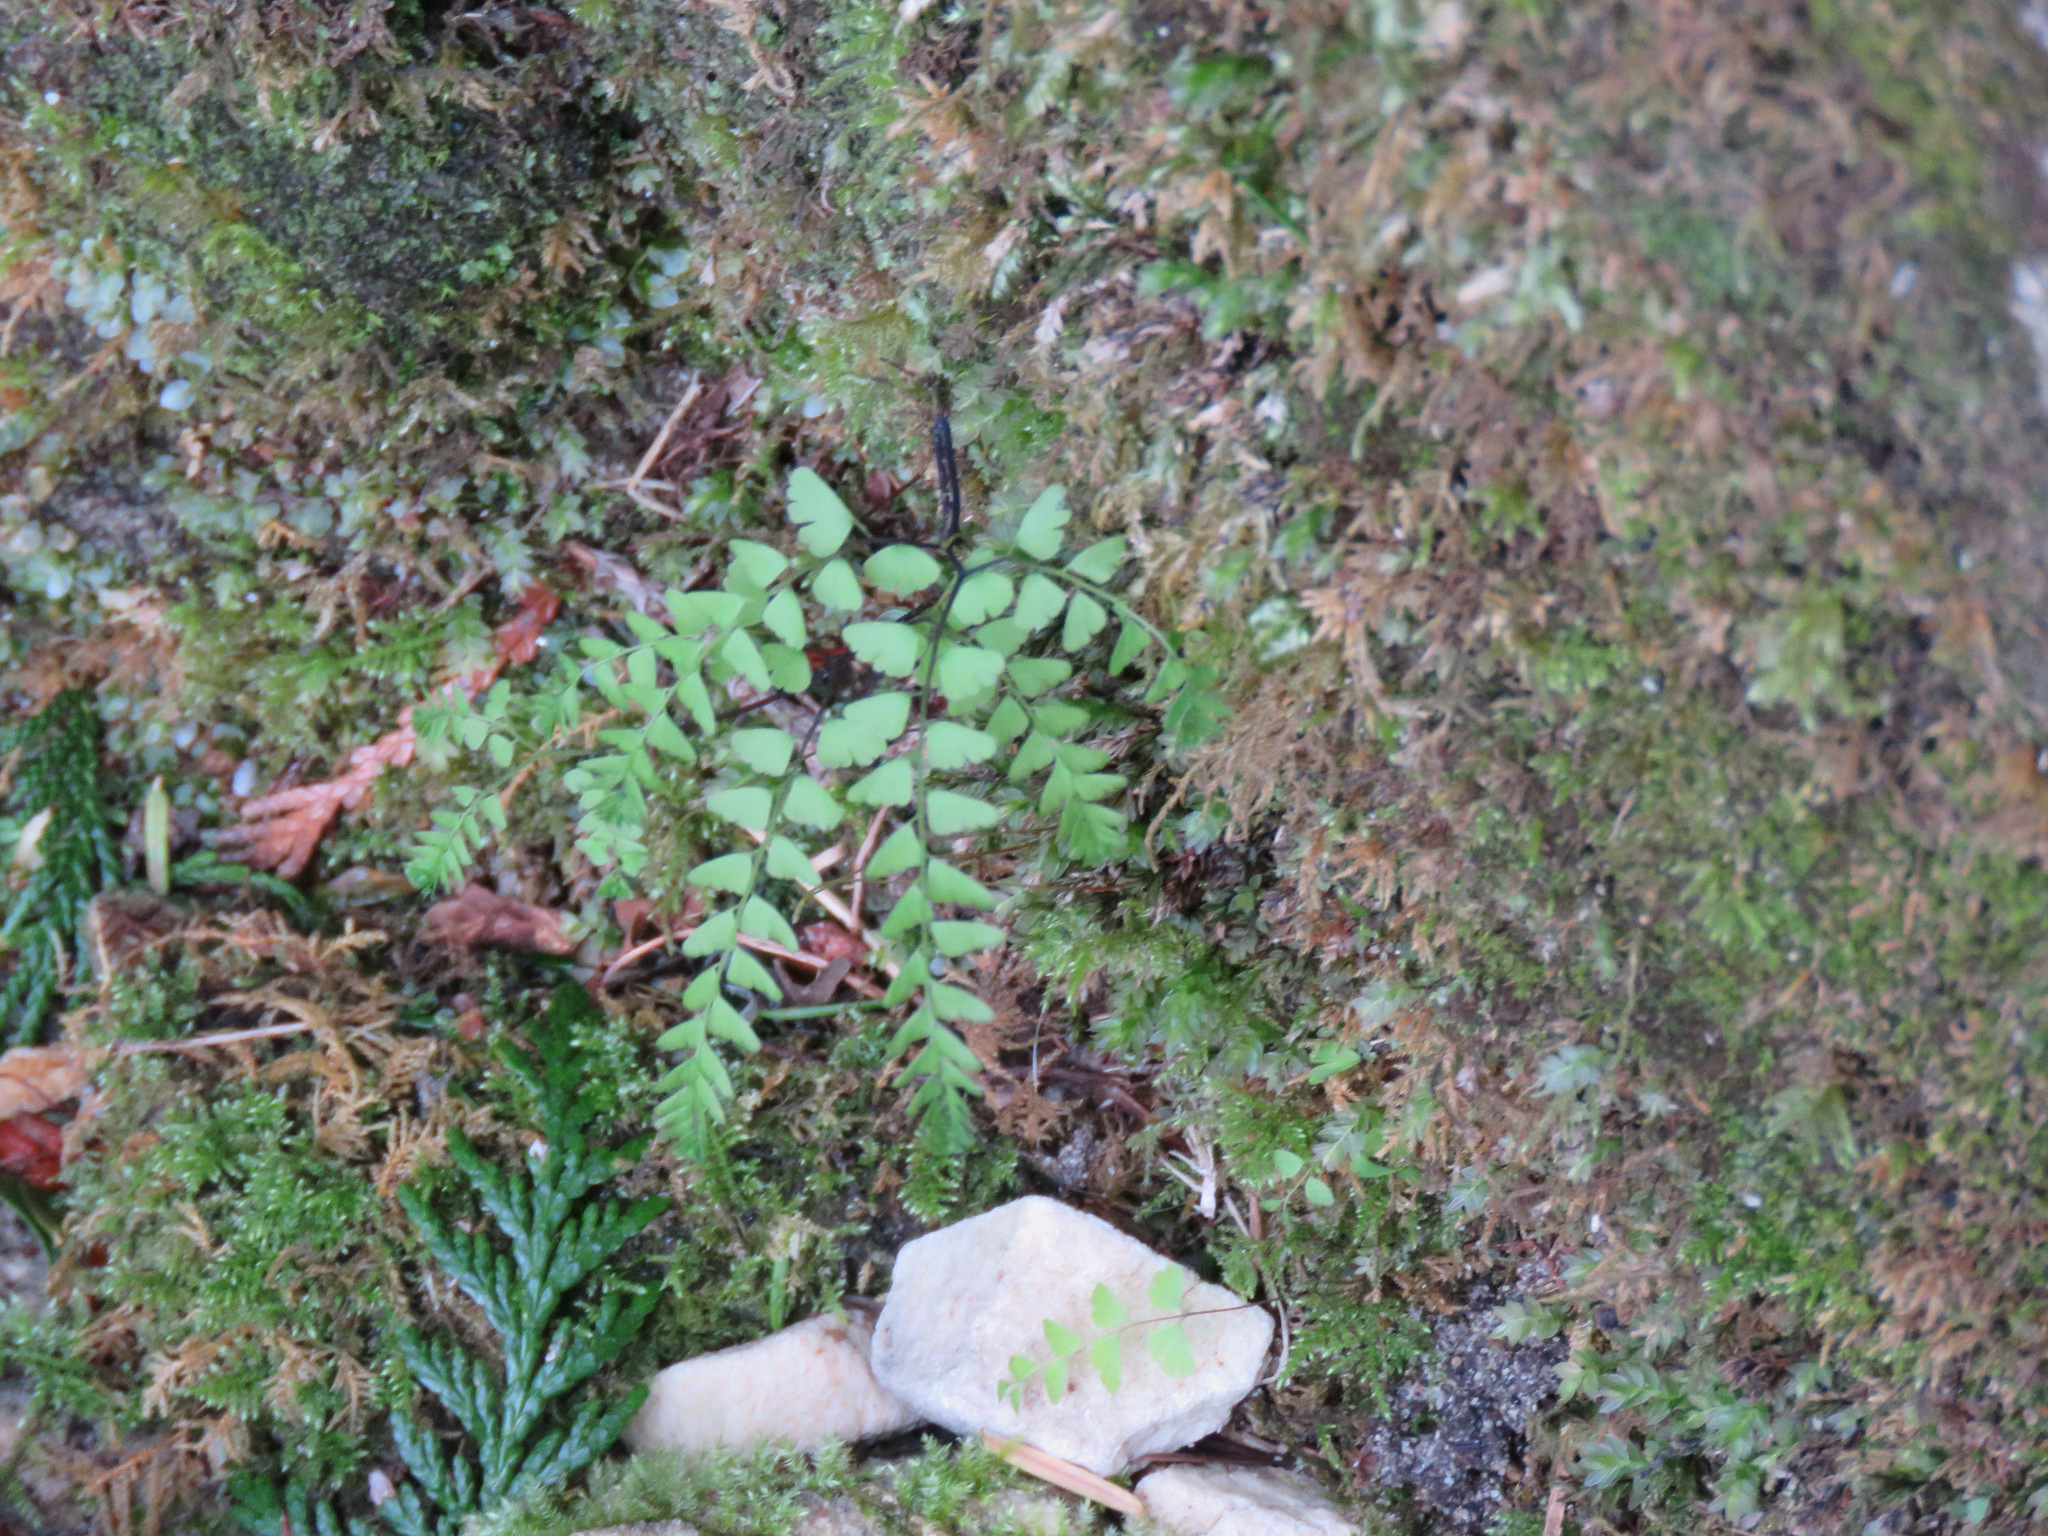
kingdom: Plantae
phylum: Tracheophyta
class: Polypodiopsida
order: Polypodiales
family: Pteridaceae
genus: Adiantum
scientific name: Adiantum aleuticum
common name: Aleutian maidenhair fern
